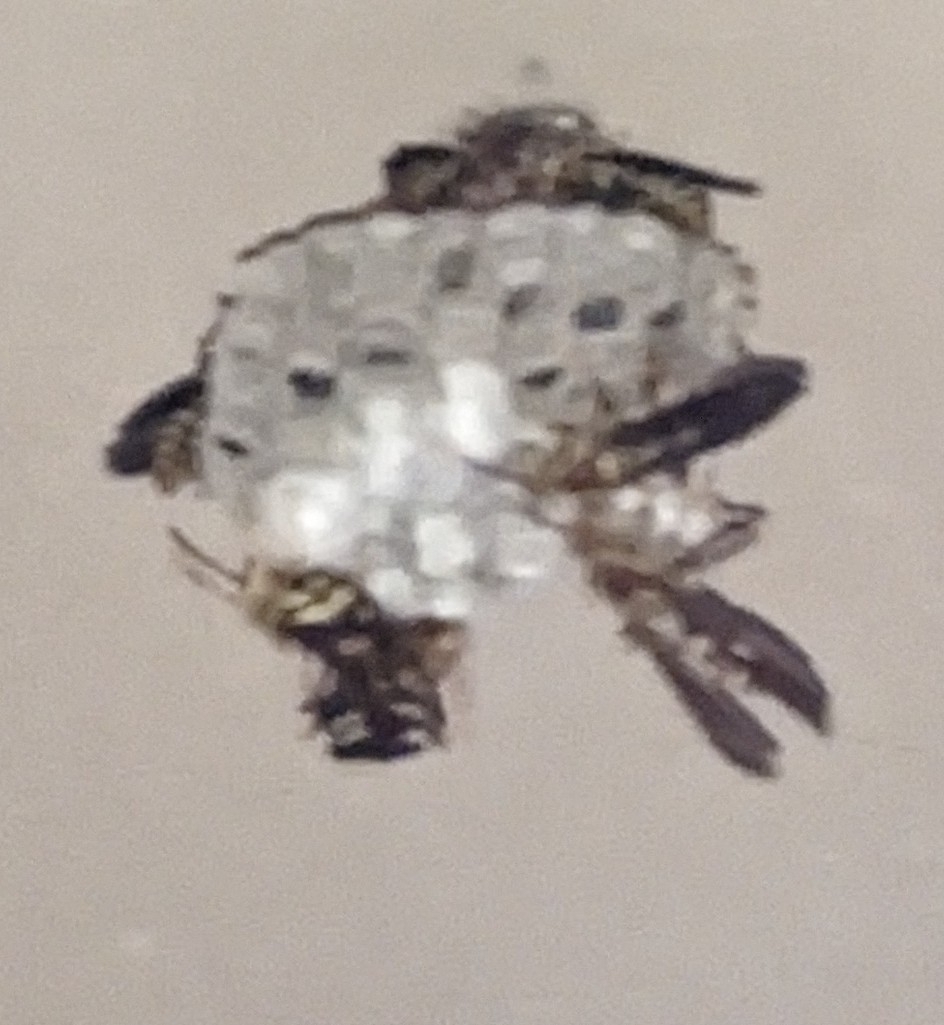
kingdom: Animalia
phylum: Arthropoda
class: Insecta
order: Hymenoptera
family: Eumenidae
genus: Polistes
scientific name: Polistes exclamans
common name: Paper wasp
